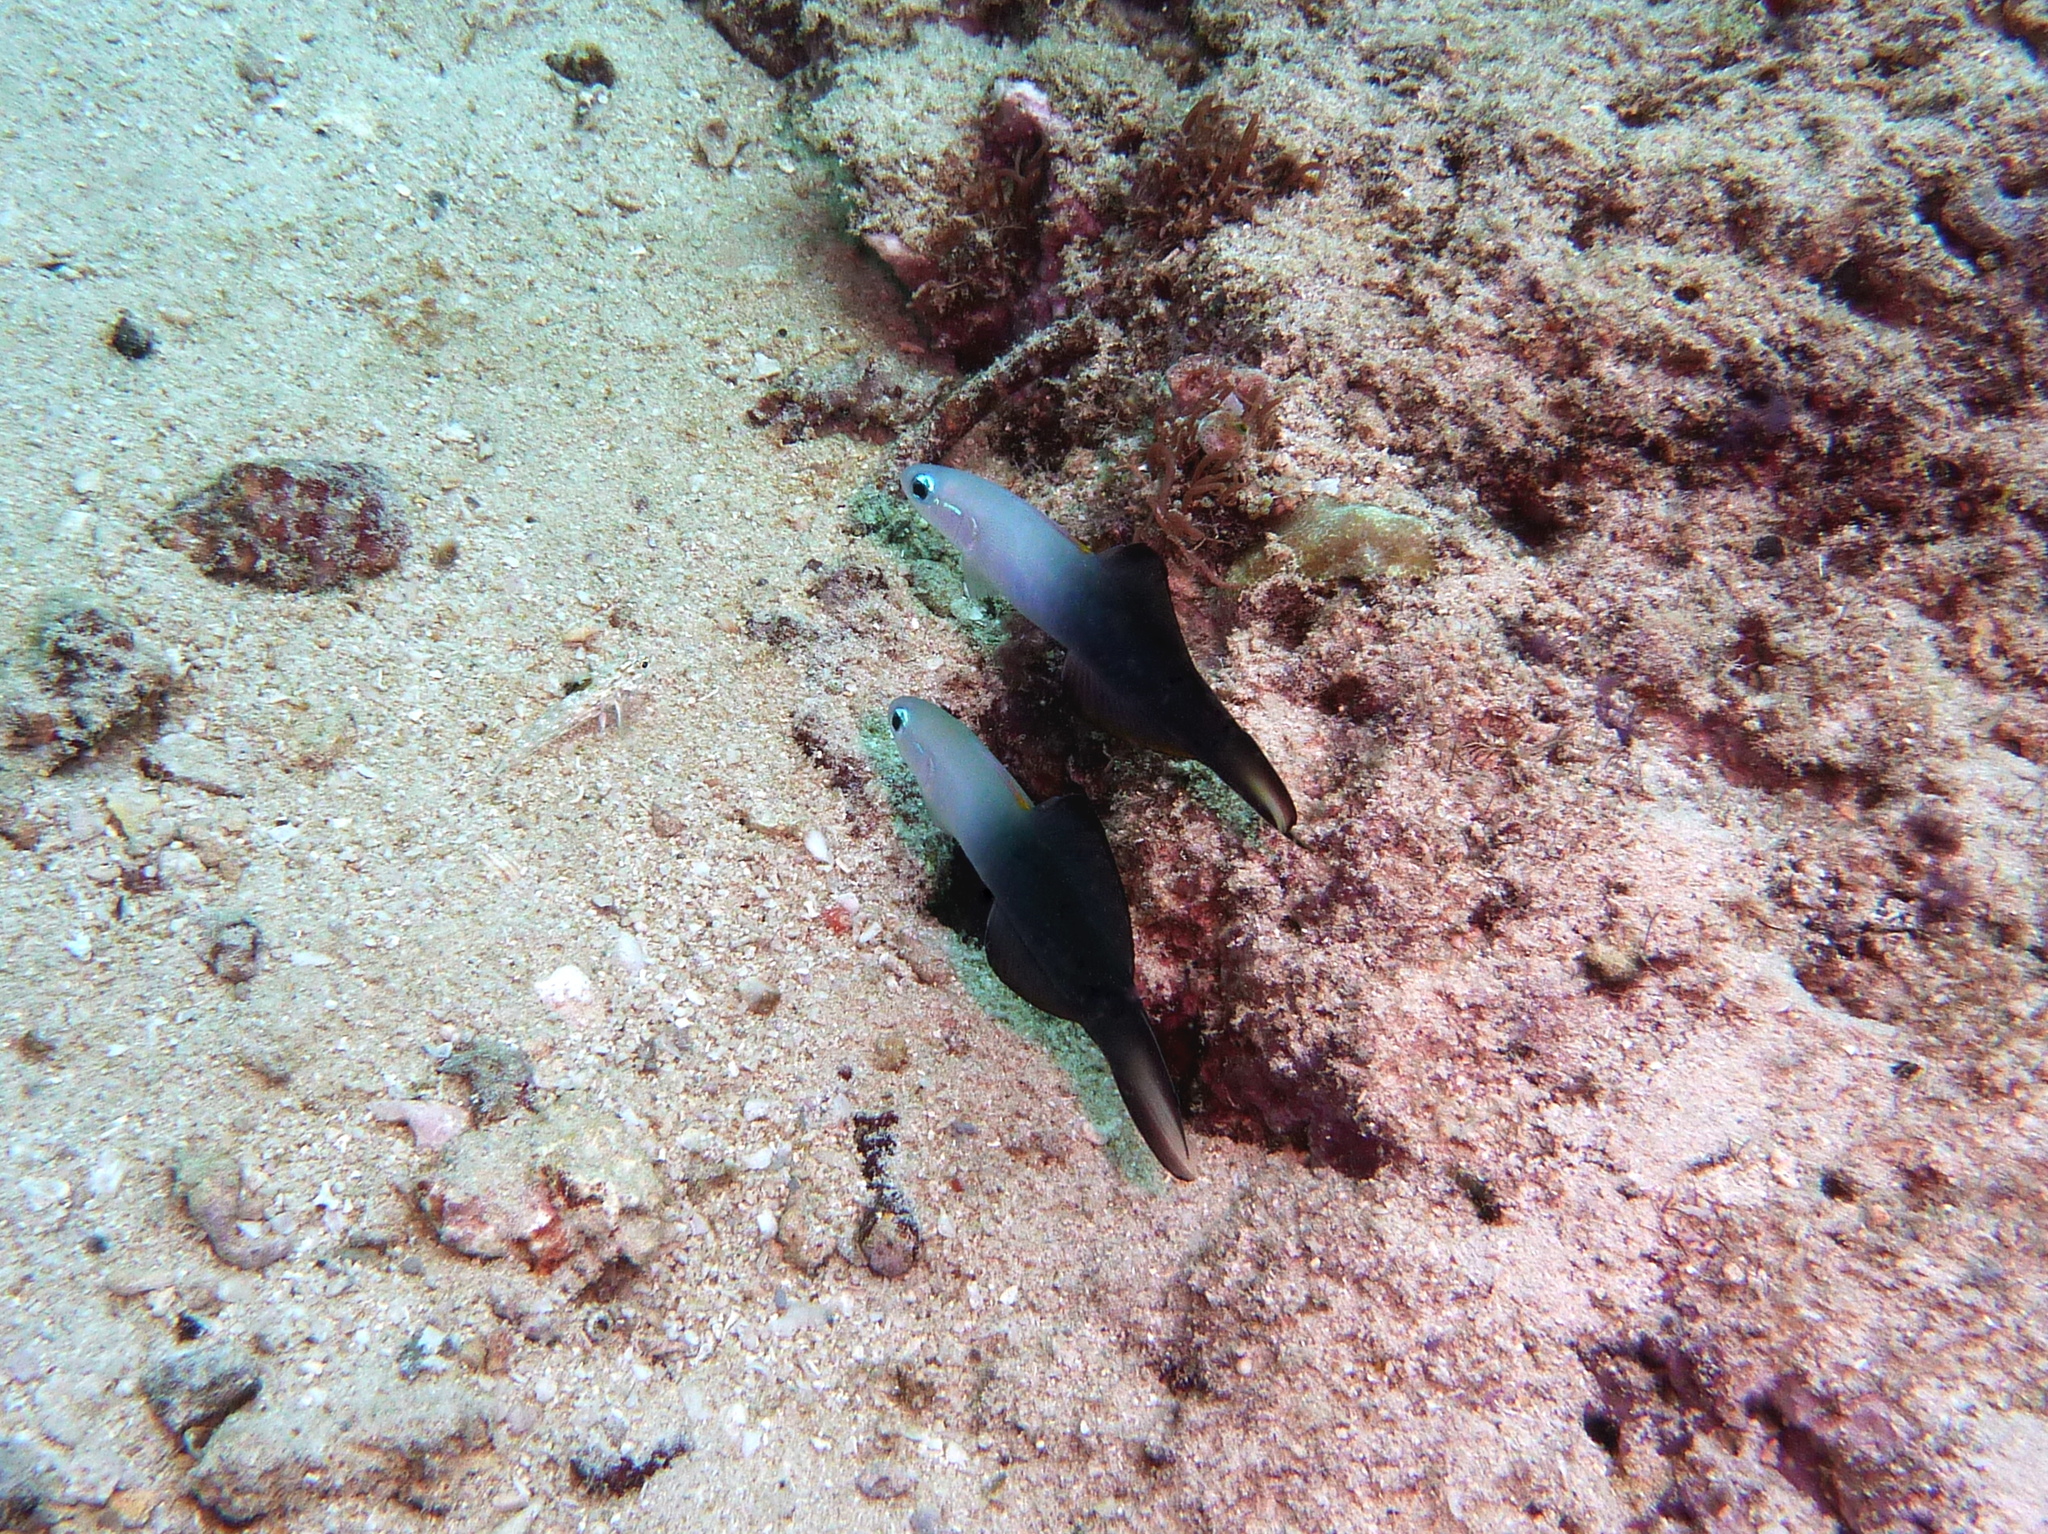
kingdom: Animalia
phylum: Chordata
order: Perciformes
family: Microdesmidae
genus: Ptereleotris
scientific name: Ptereleotris evides
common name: Blackfin dartfish
